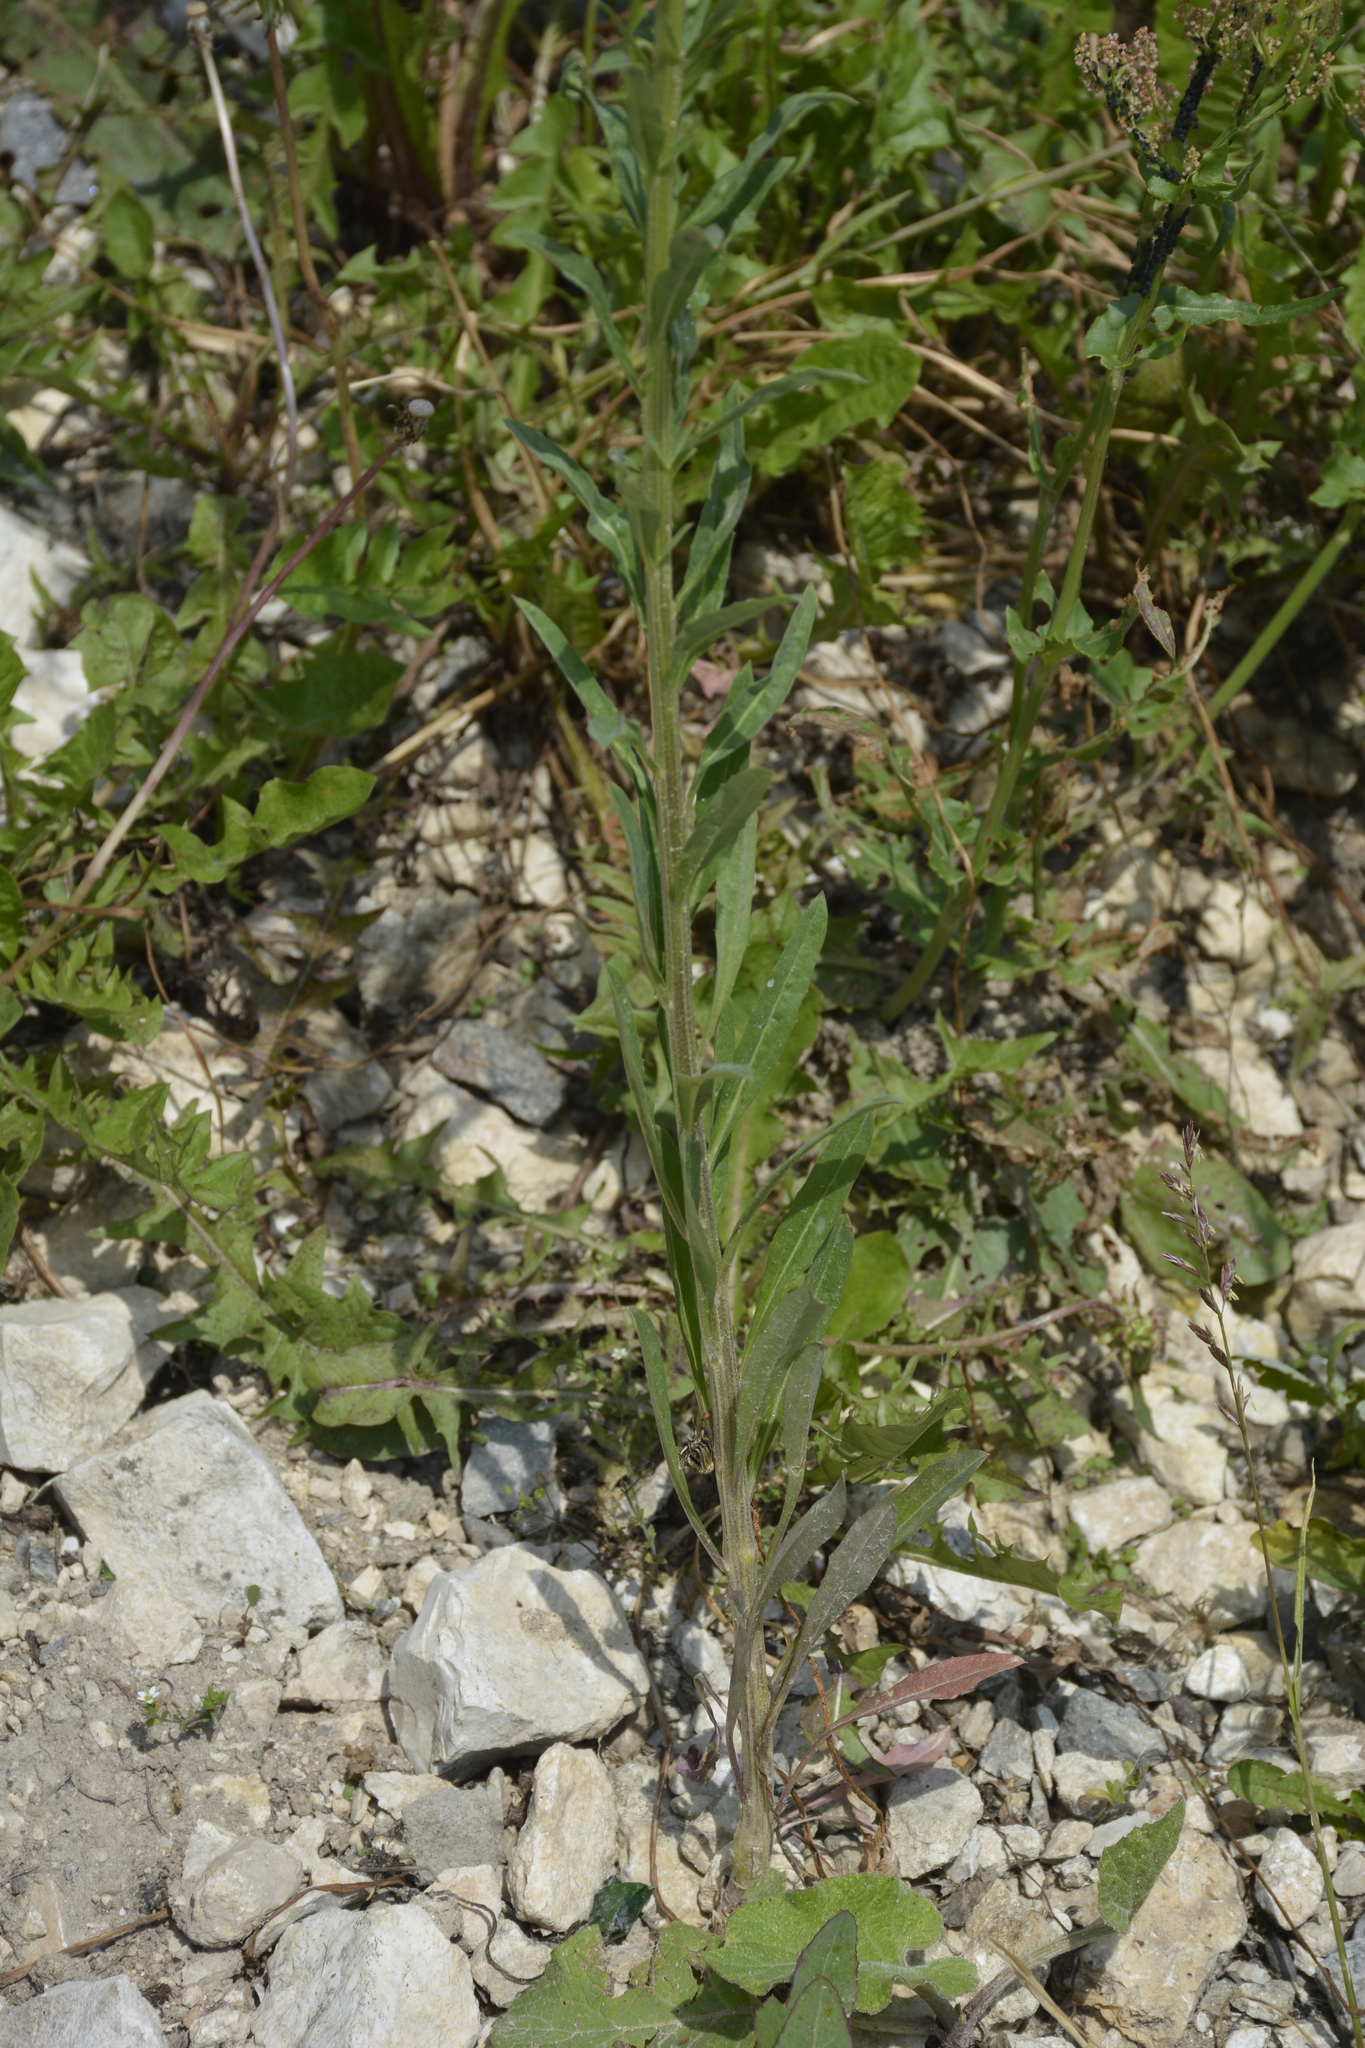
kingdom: Plantae
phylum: Tracheophyta
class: Magnoliopsida
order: Brassicales
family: Brassicaceae
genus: Erysimum
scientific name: Erysimum hieraciifolium
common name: European wallflower
